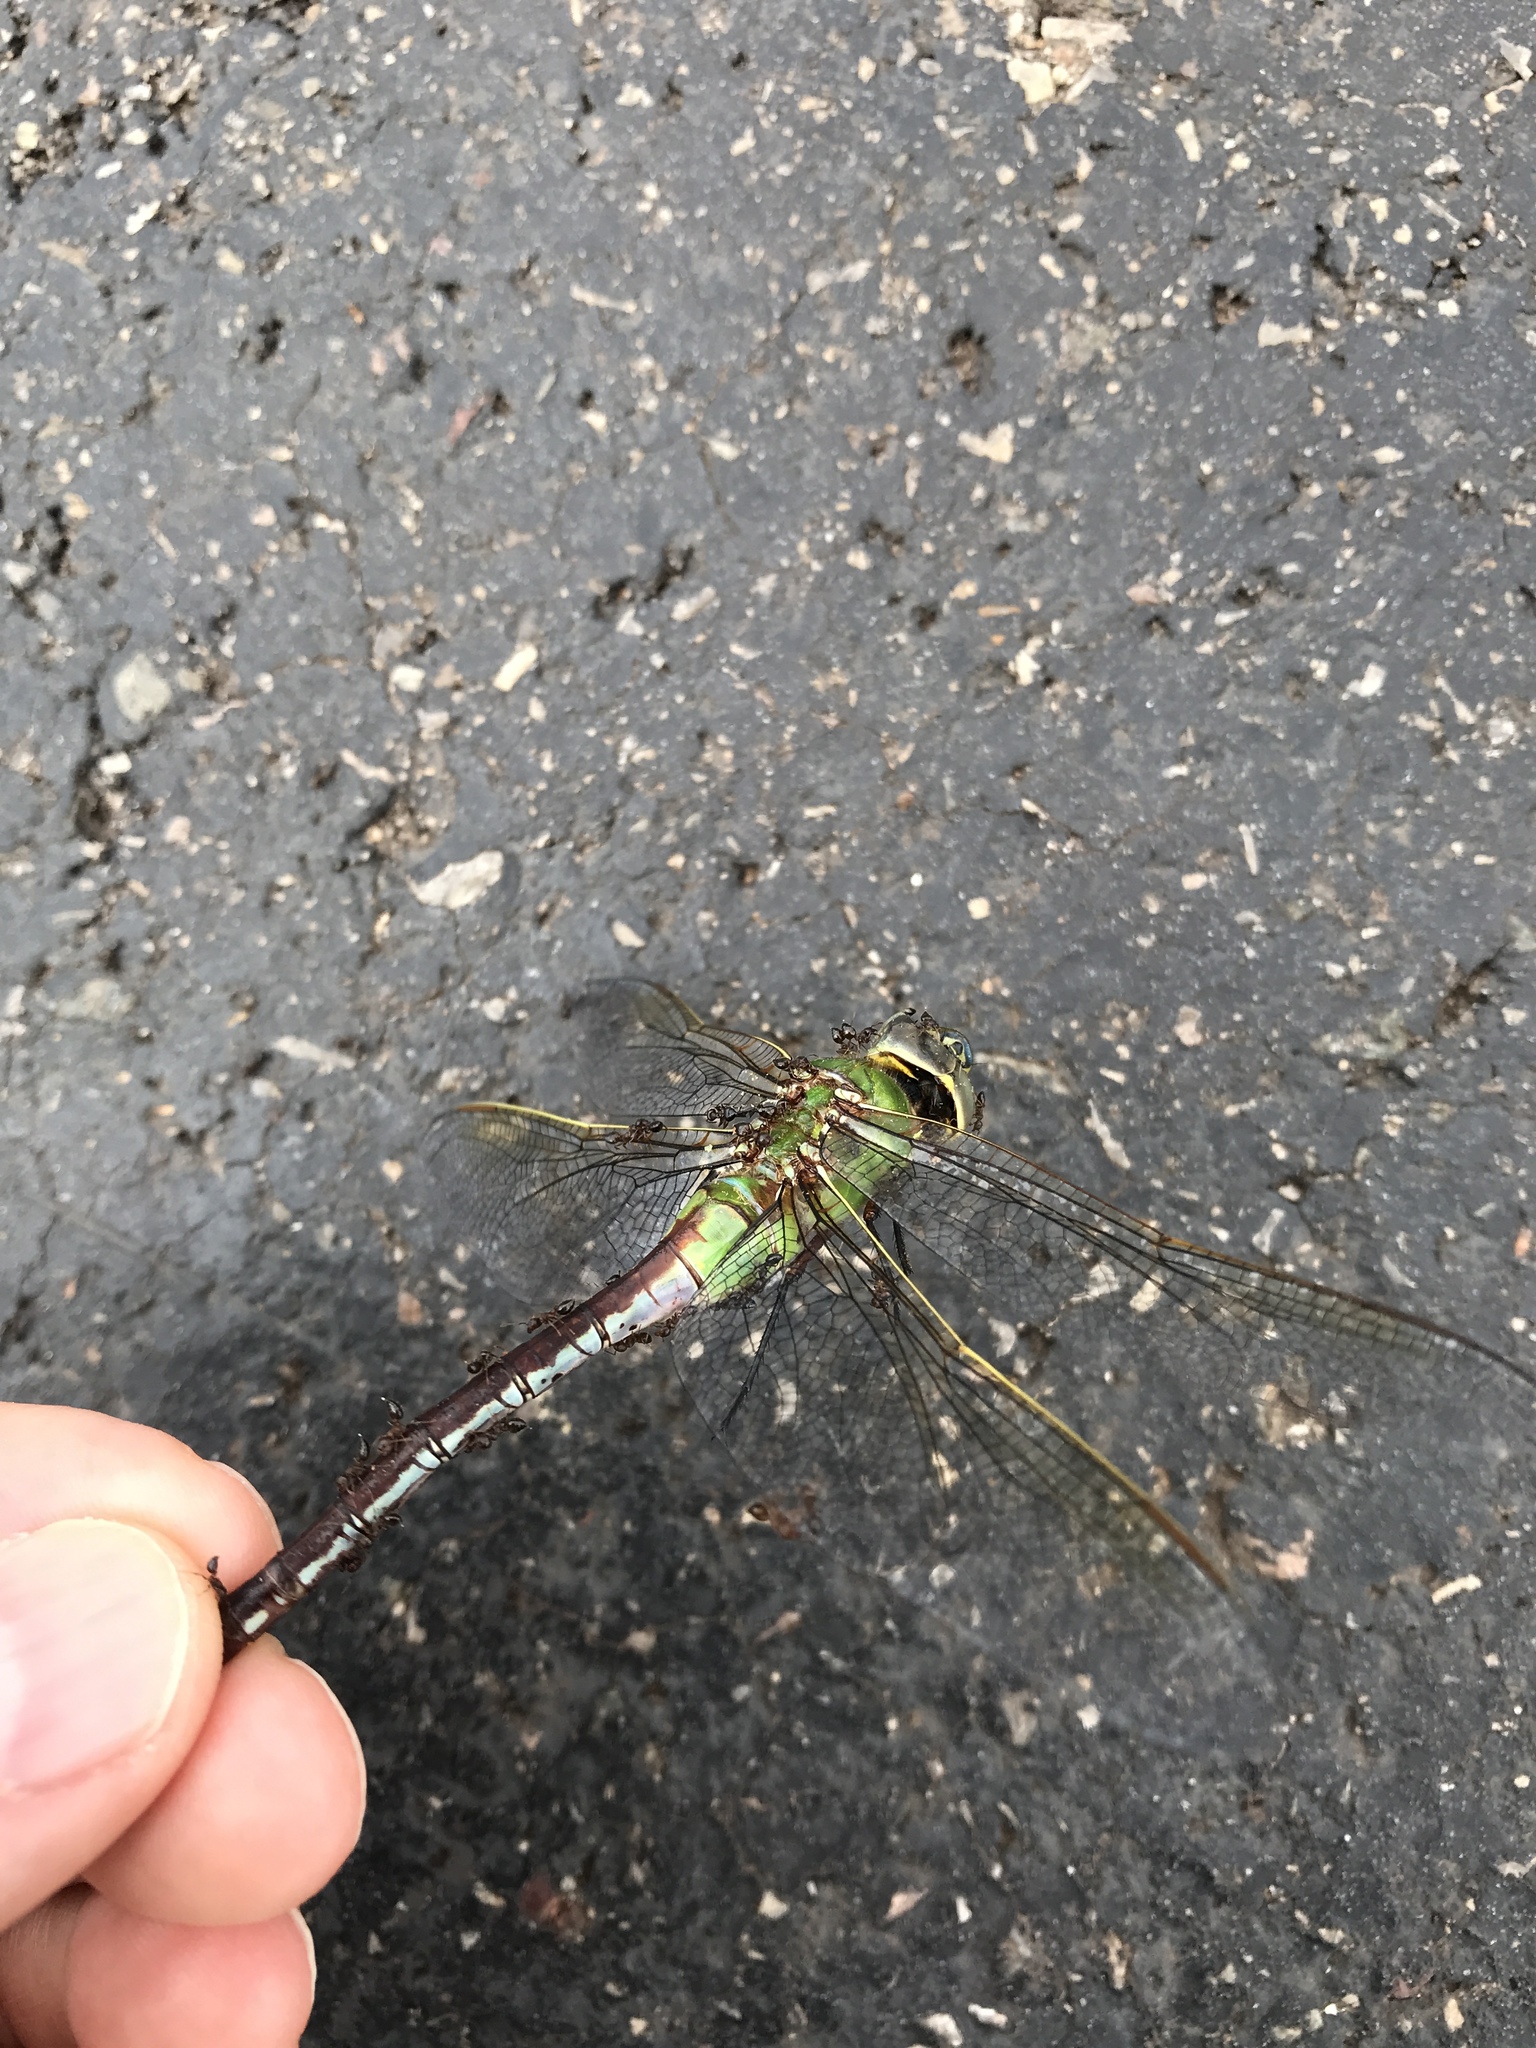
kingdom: Animalia
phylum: Arthropoda
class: Insecta
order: Odonata
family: Aeshnidae
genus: Anax
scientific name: Anax junius
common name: Common green darner
